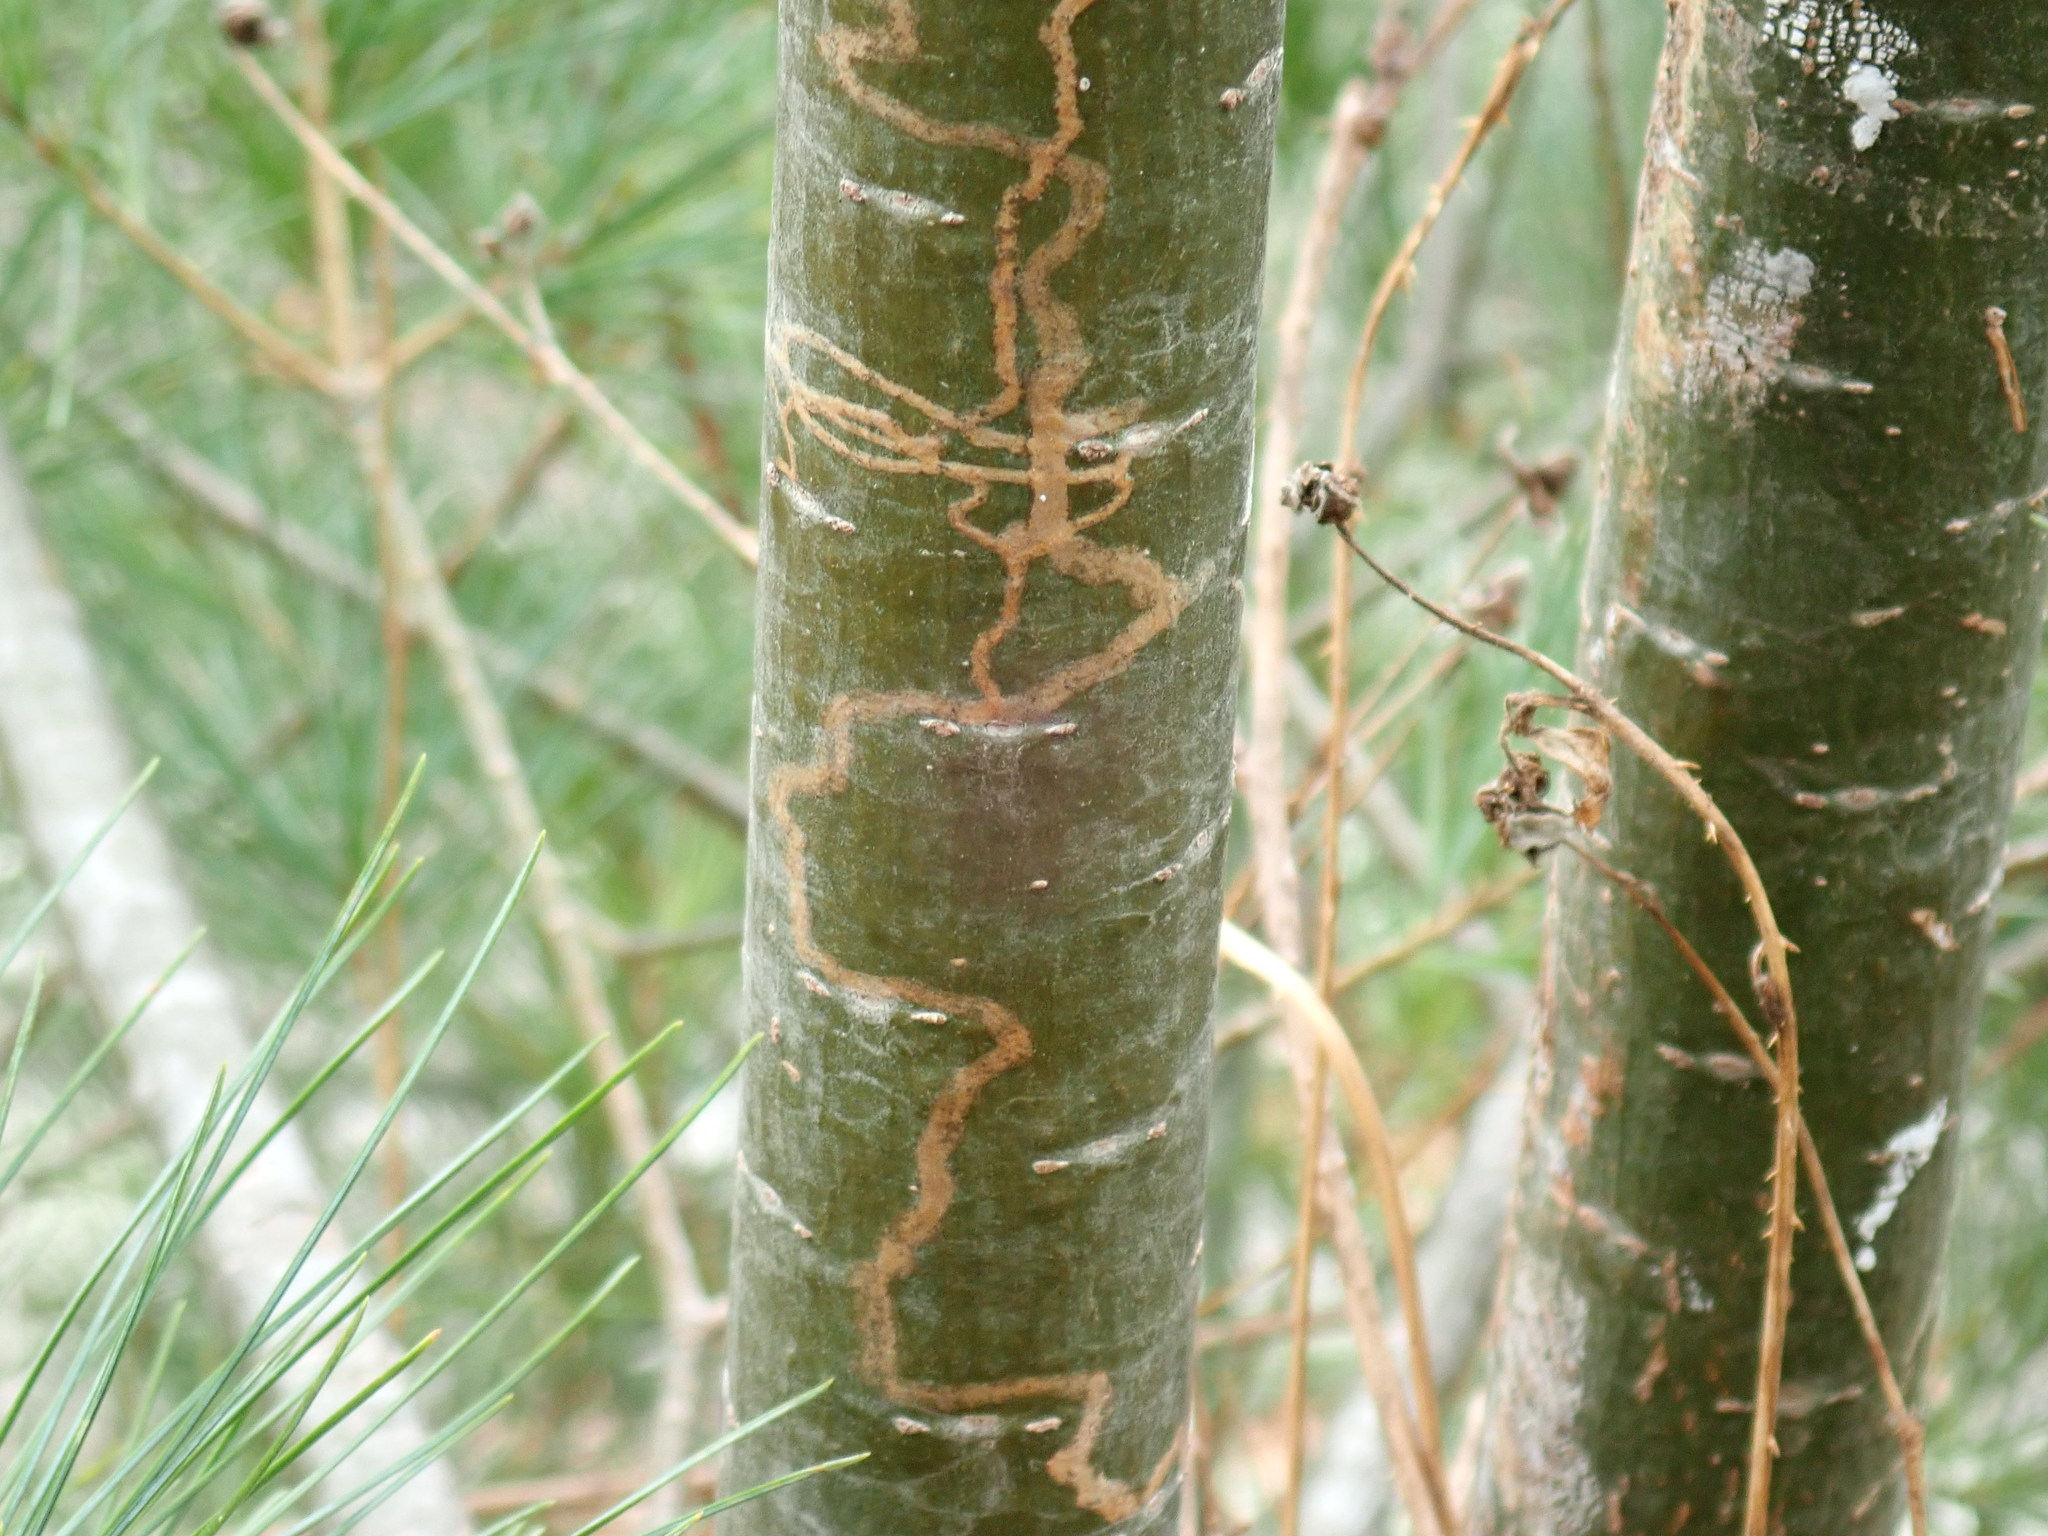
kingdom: Animalia
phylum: Arthropoda
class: Insecta
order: Lepidoptera
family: Gracillariidae
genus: Marmara
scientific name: Marmara fasciella
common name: White pine barkminer moth
